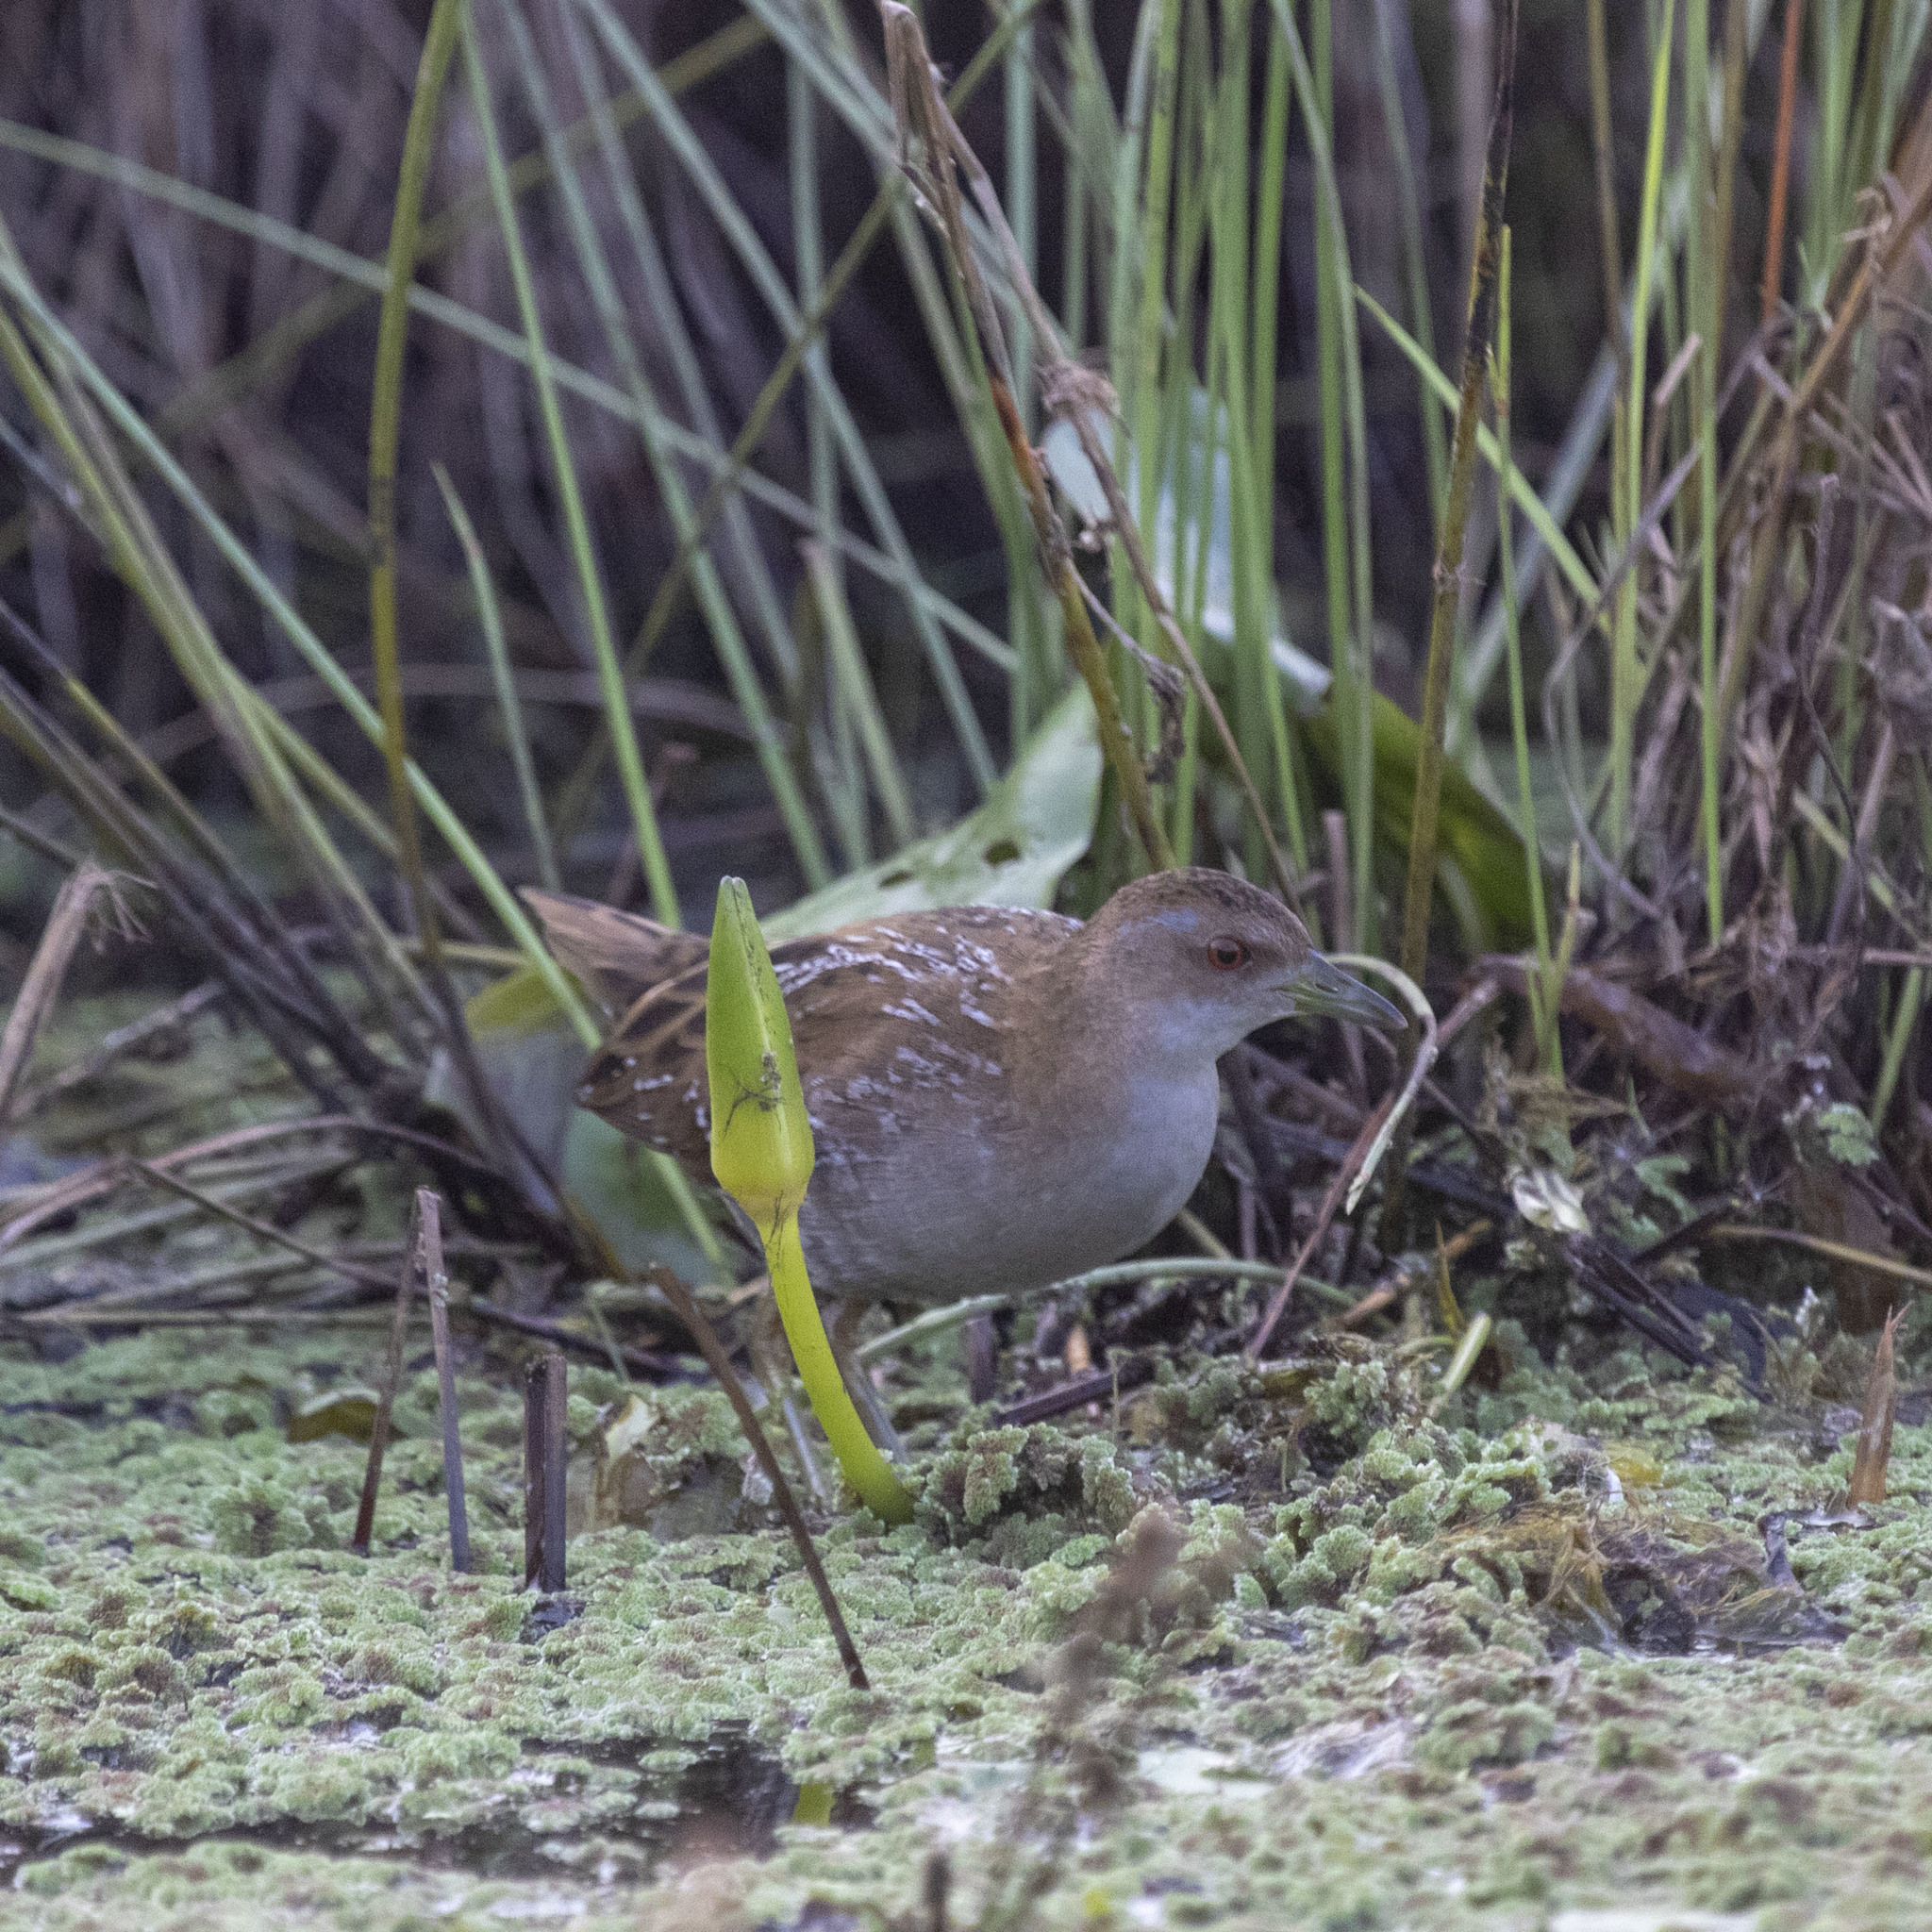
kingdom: Animalia
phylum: Chordata
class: Aves
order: Gruiformes
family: Rallidae
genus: Porzana
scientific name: Porzana pusilla
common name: Baillon's crake
